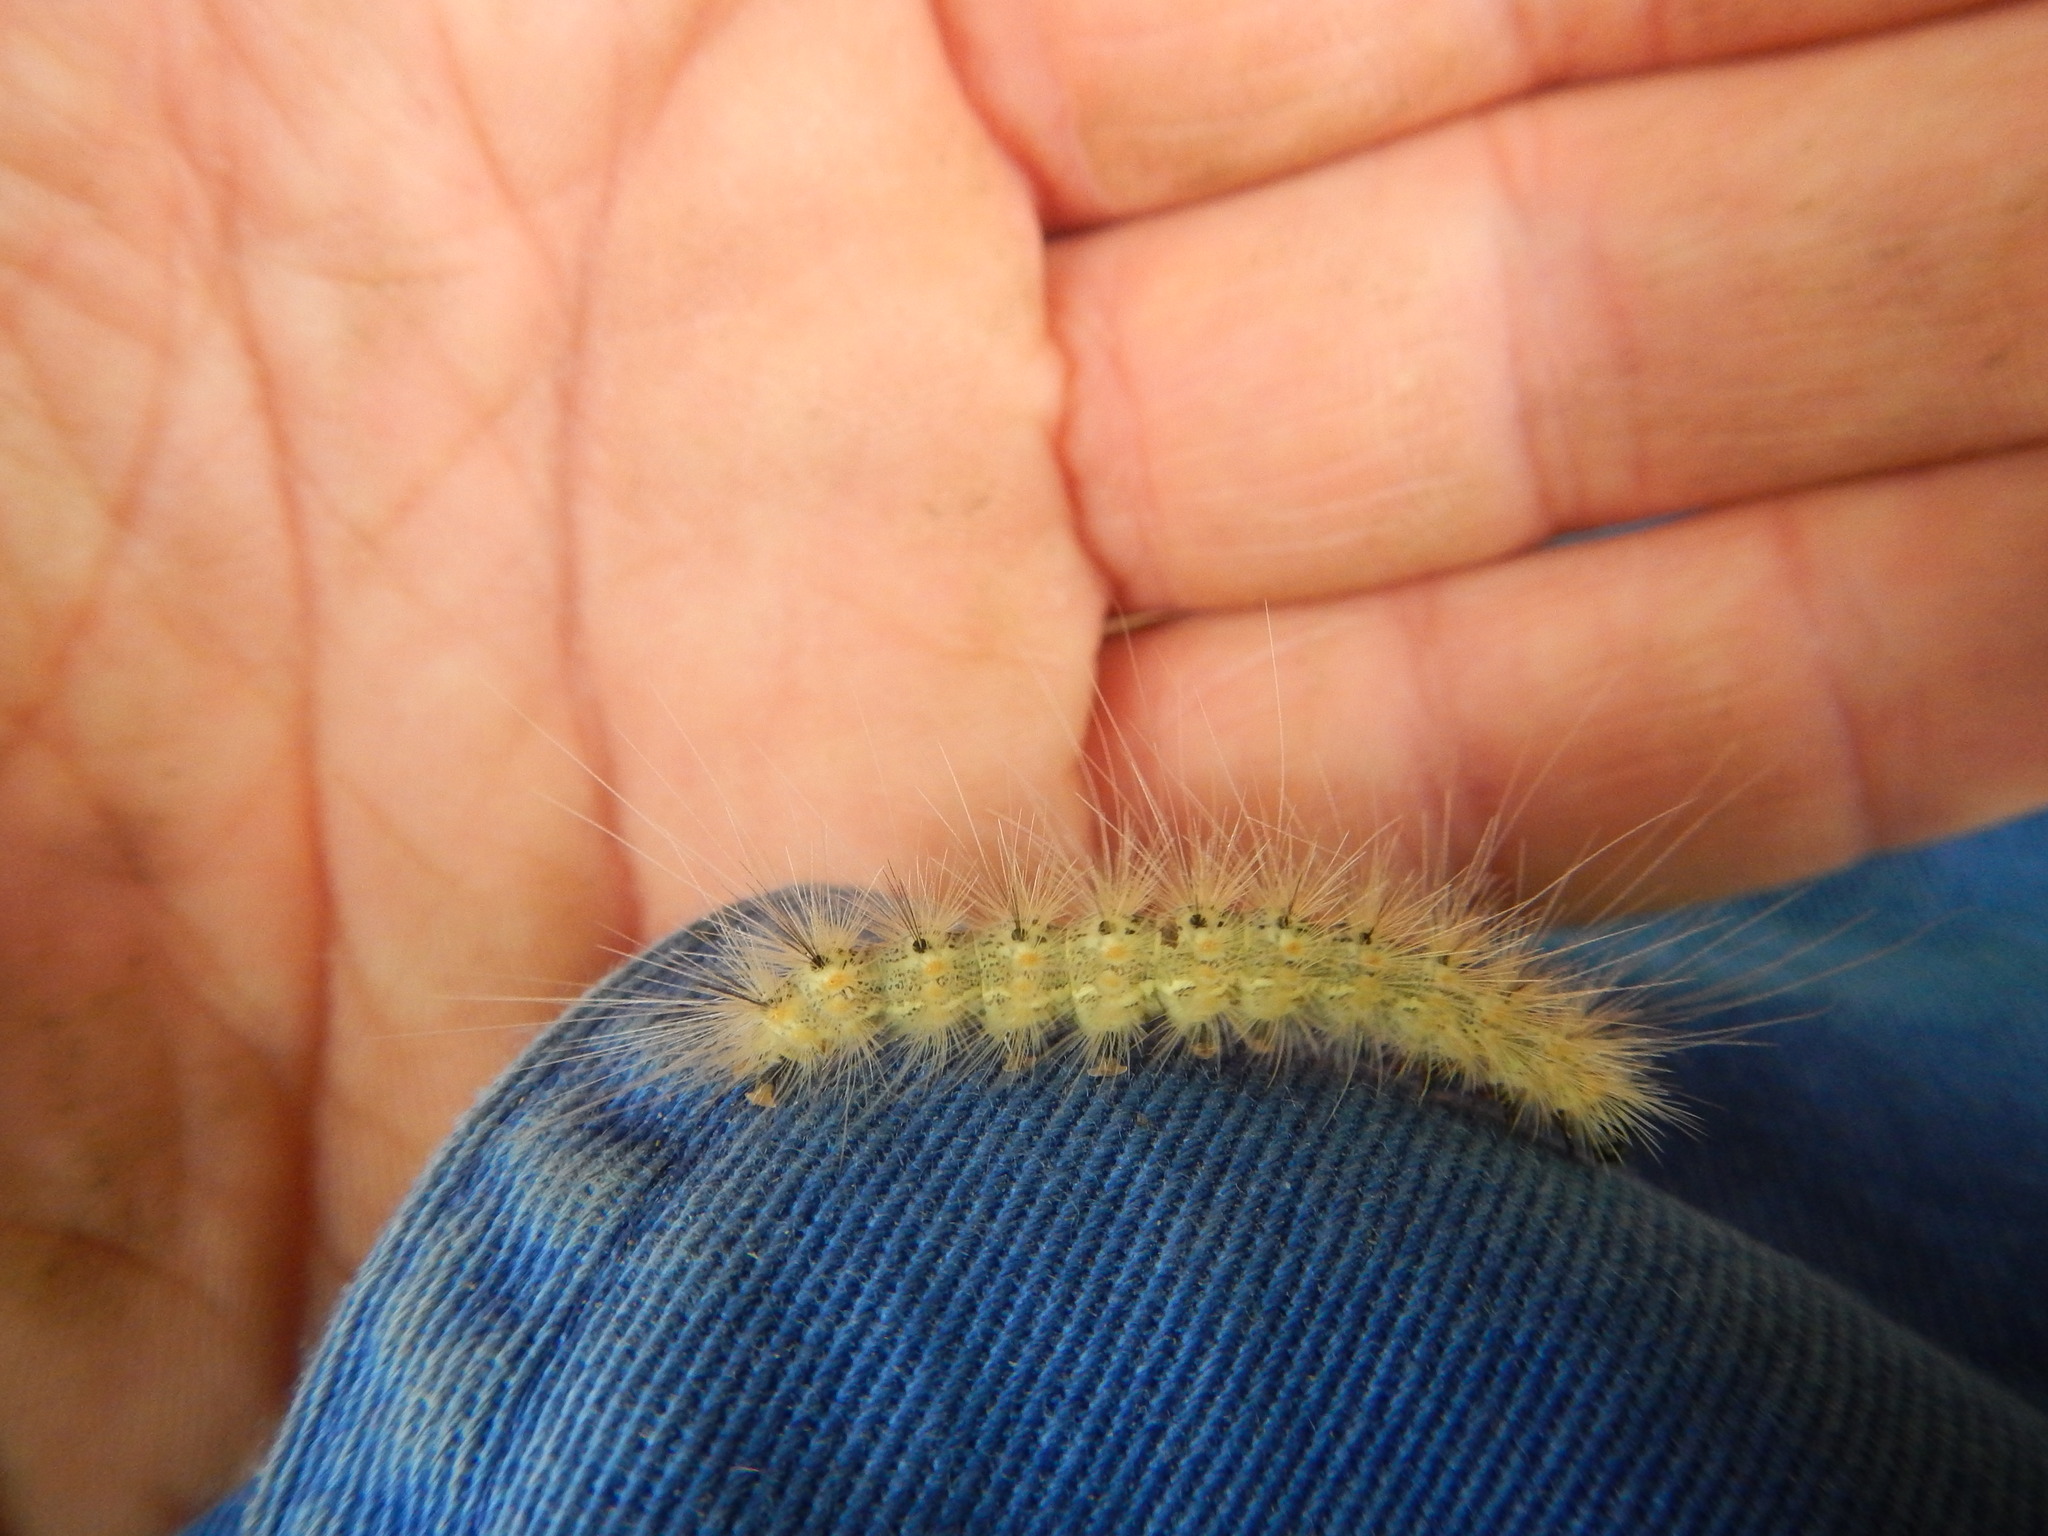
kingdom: Animalia
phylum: Arthropoda
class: Insecta
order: Lepidoptera
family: Erebidae
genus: Hyphantria
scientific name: Hyphantria cunea
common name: American white moth
